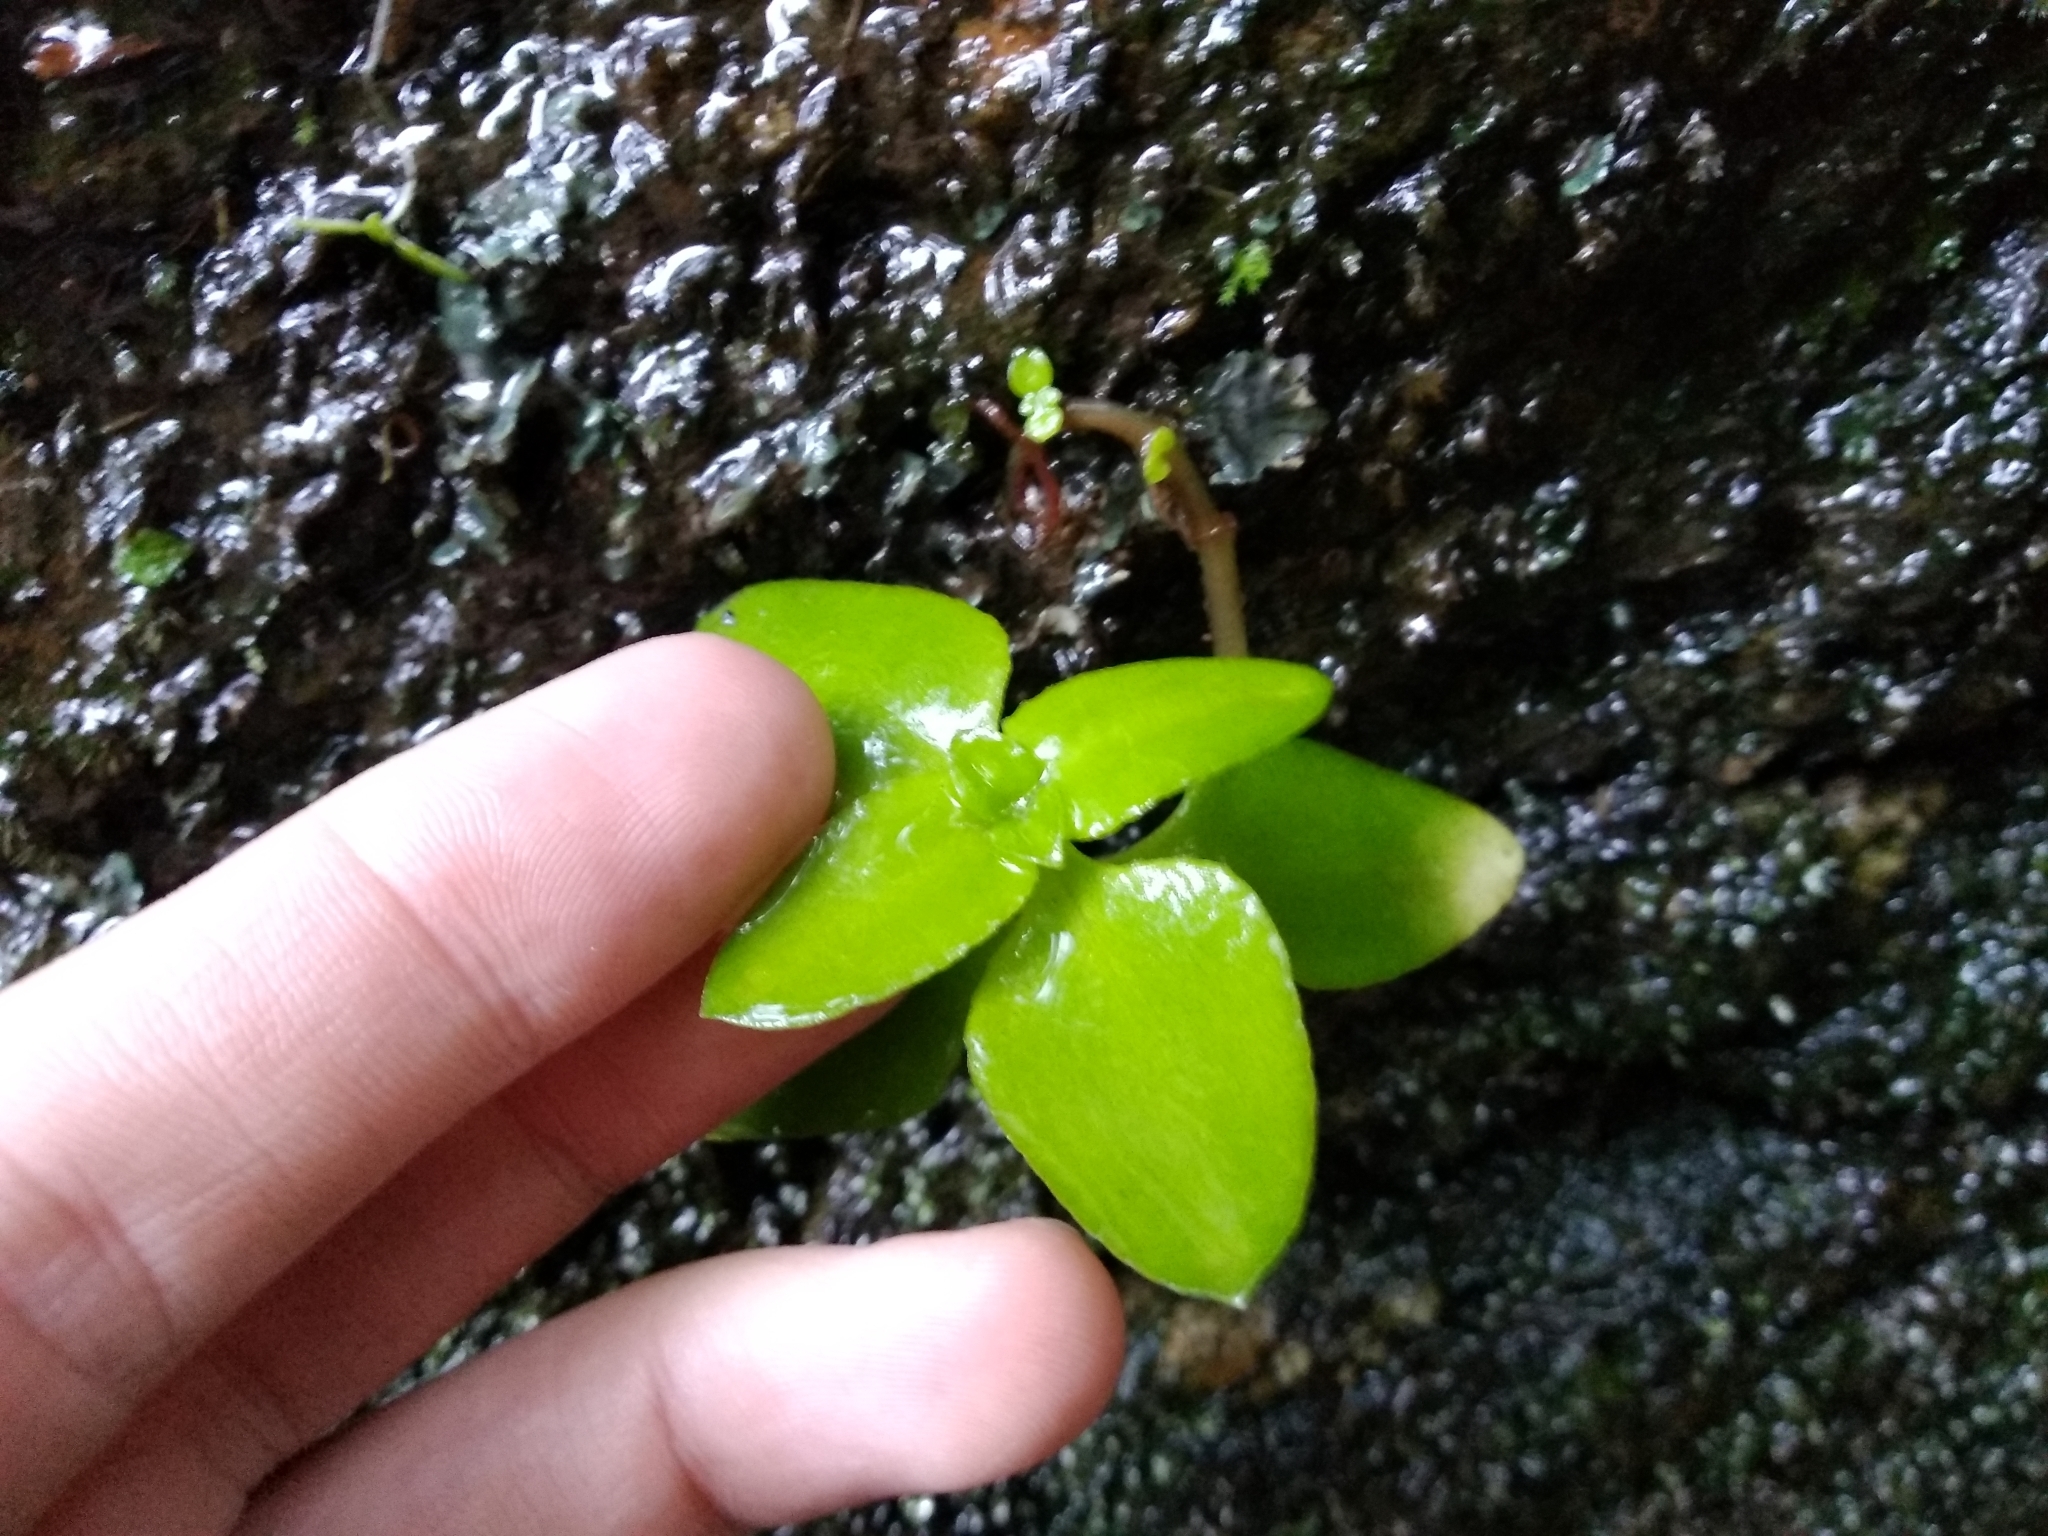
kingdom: Plantae
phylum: Tracheophyta
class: Magnoliopsida
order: Saxifragales
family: Crassulaceae
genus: Crassula
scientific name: Crassula pellucida
